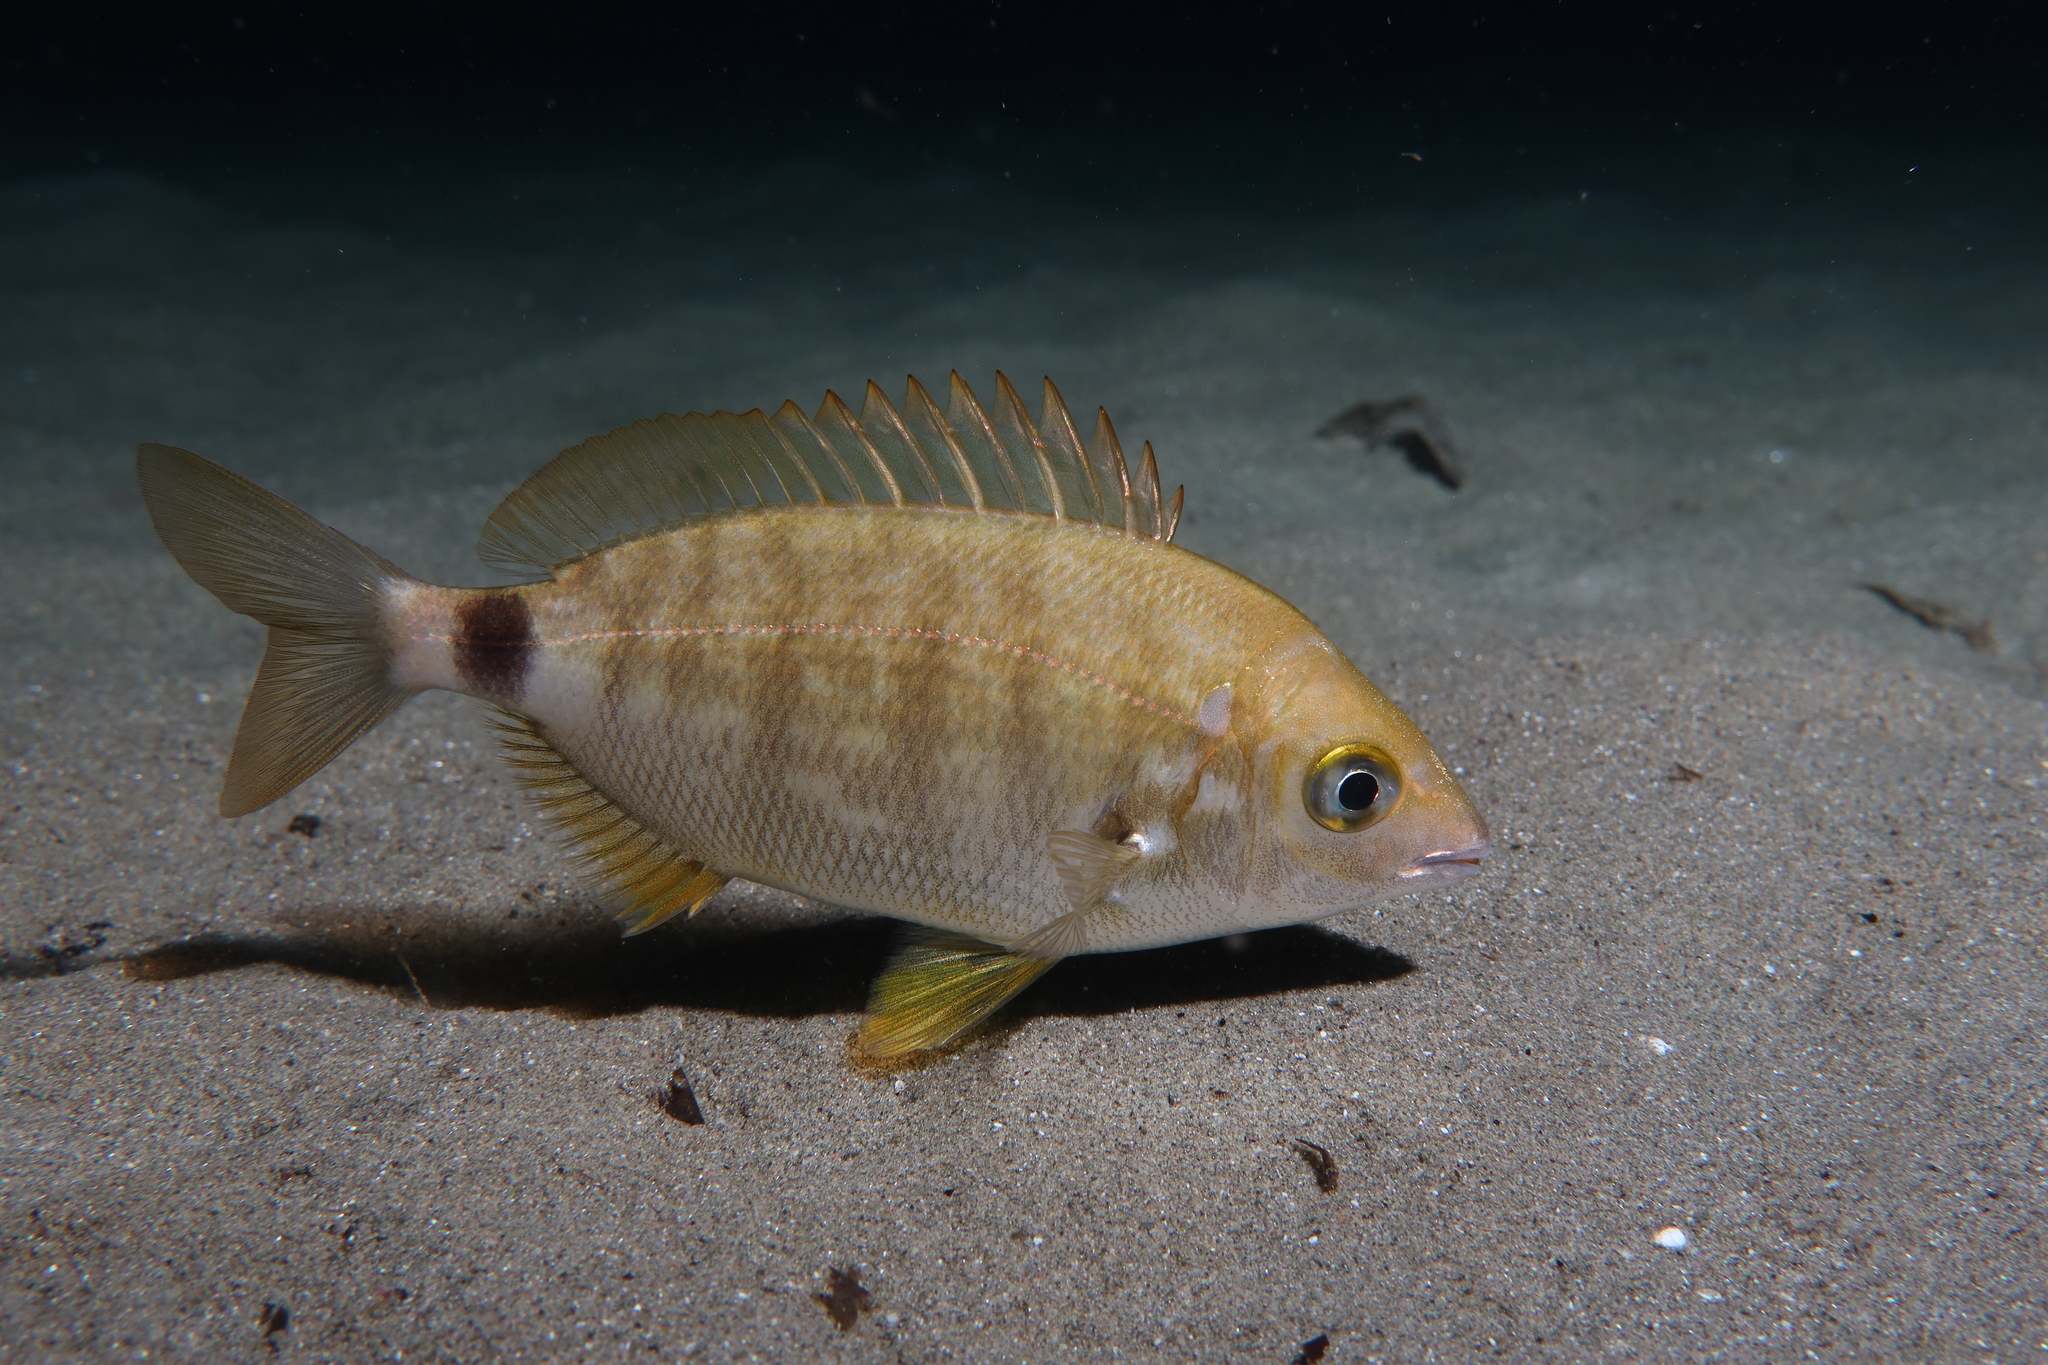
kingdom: Animalia
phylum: Chordata
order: Perciformes
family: Sparidae
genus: Diplodus
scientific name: Diplodus annularis
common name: Annular seabream
